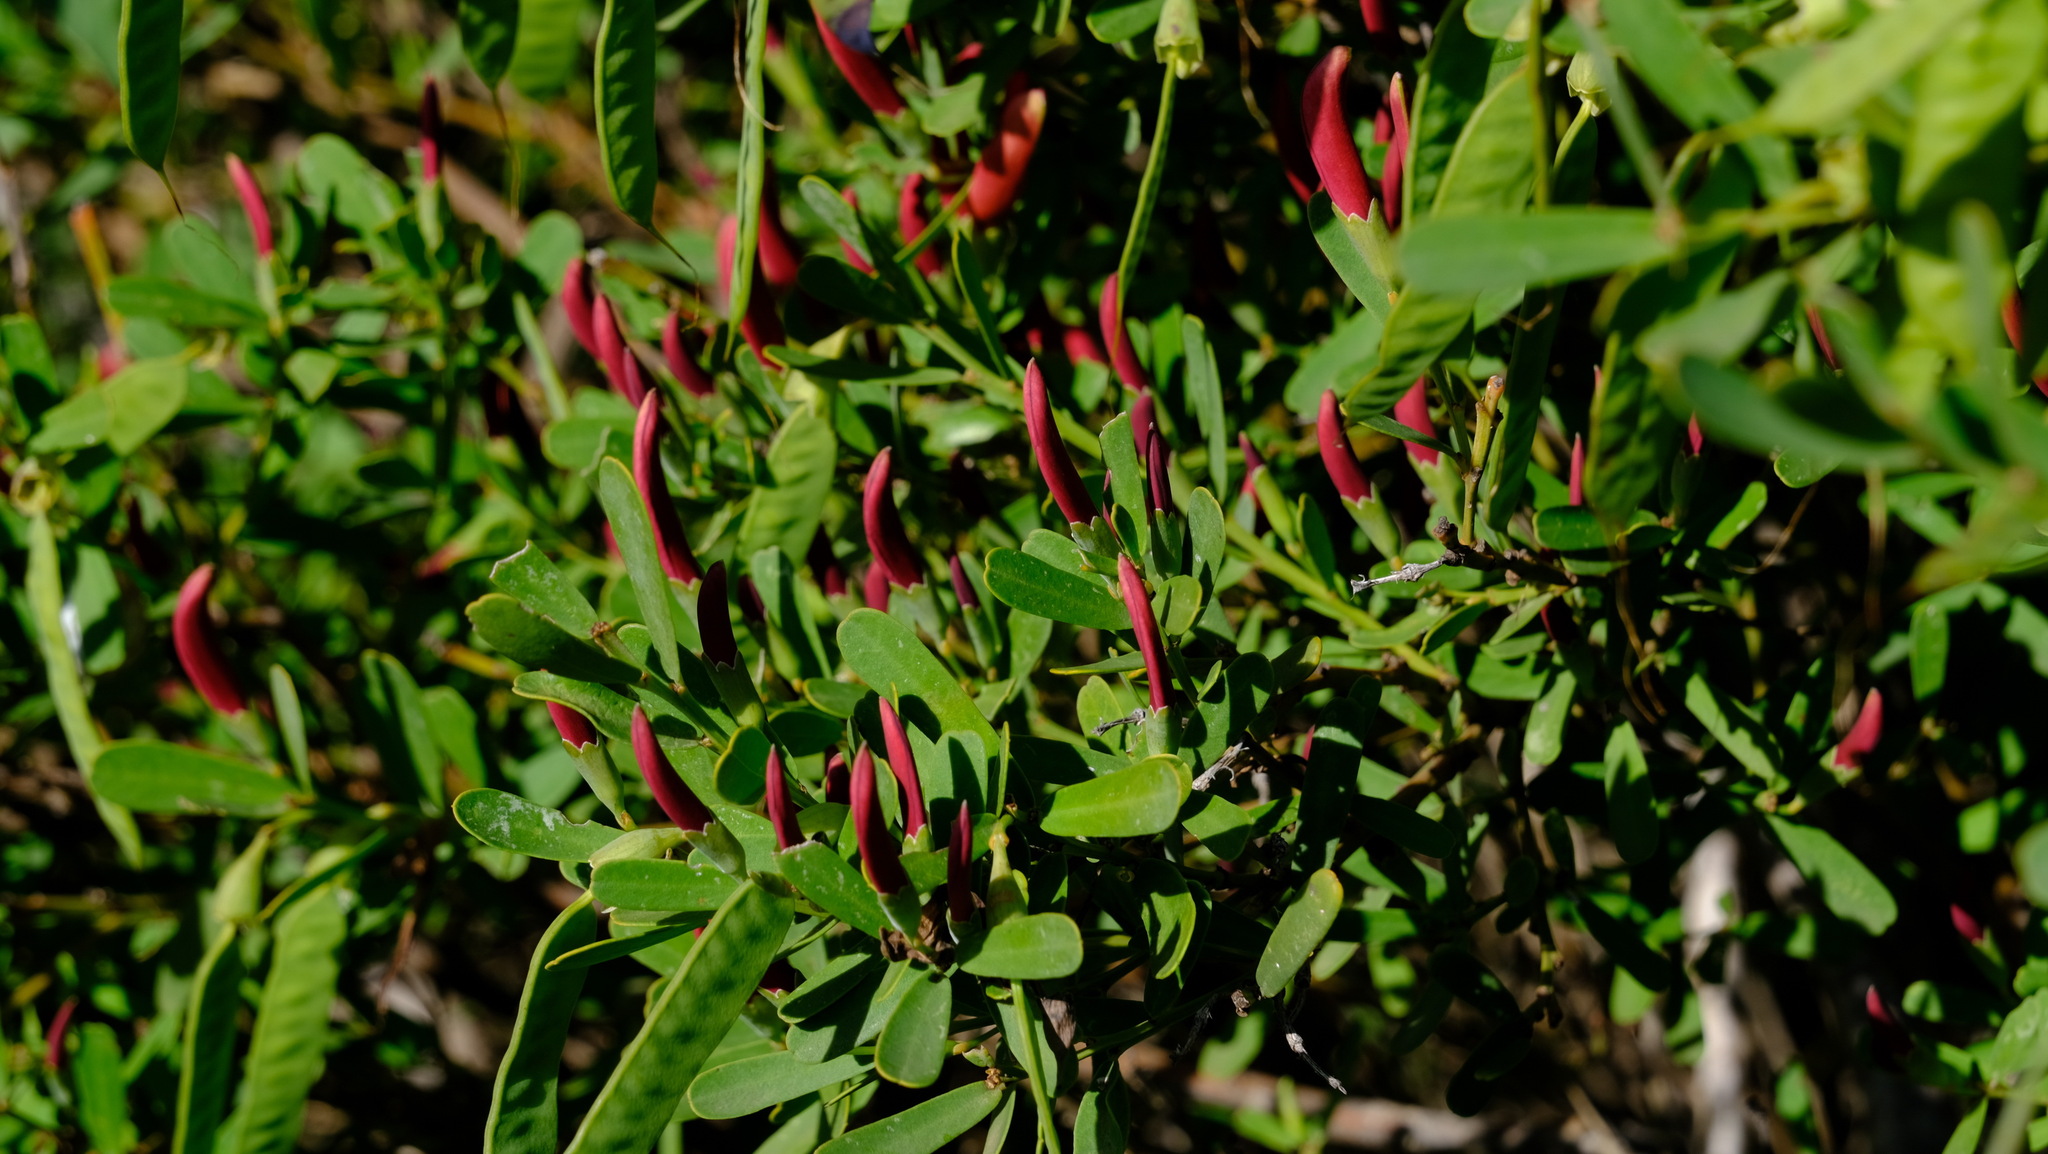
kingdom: Plantae
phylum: Tracheophyta
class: Magnoliopsida
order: Fabales
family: Fabaceae
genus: Templetonia
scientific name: Templetonia retusa
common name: Cockies'-tongue
